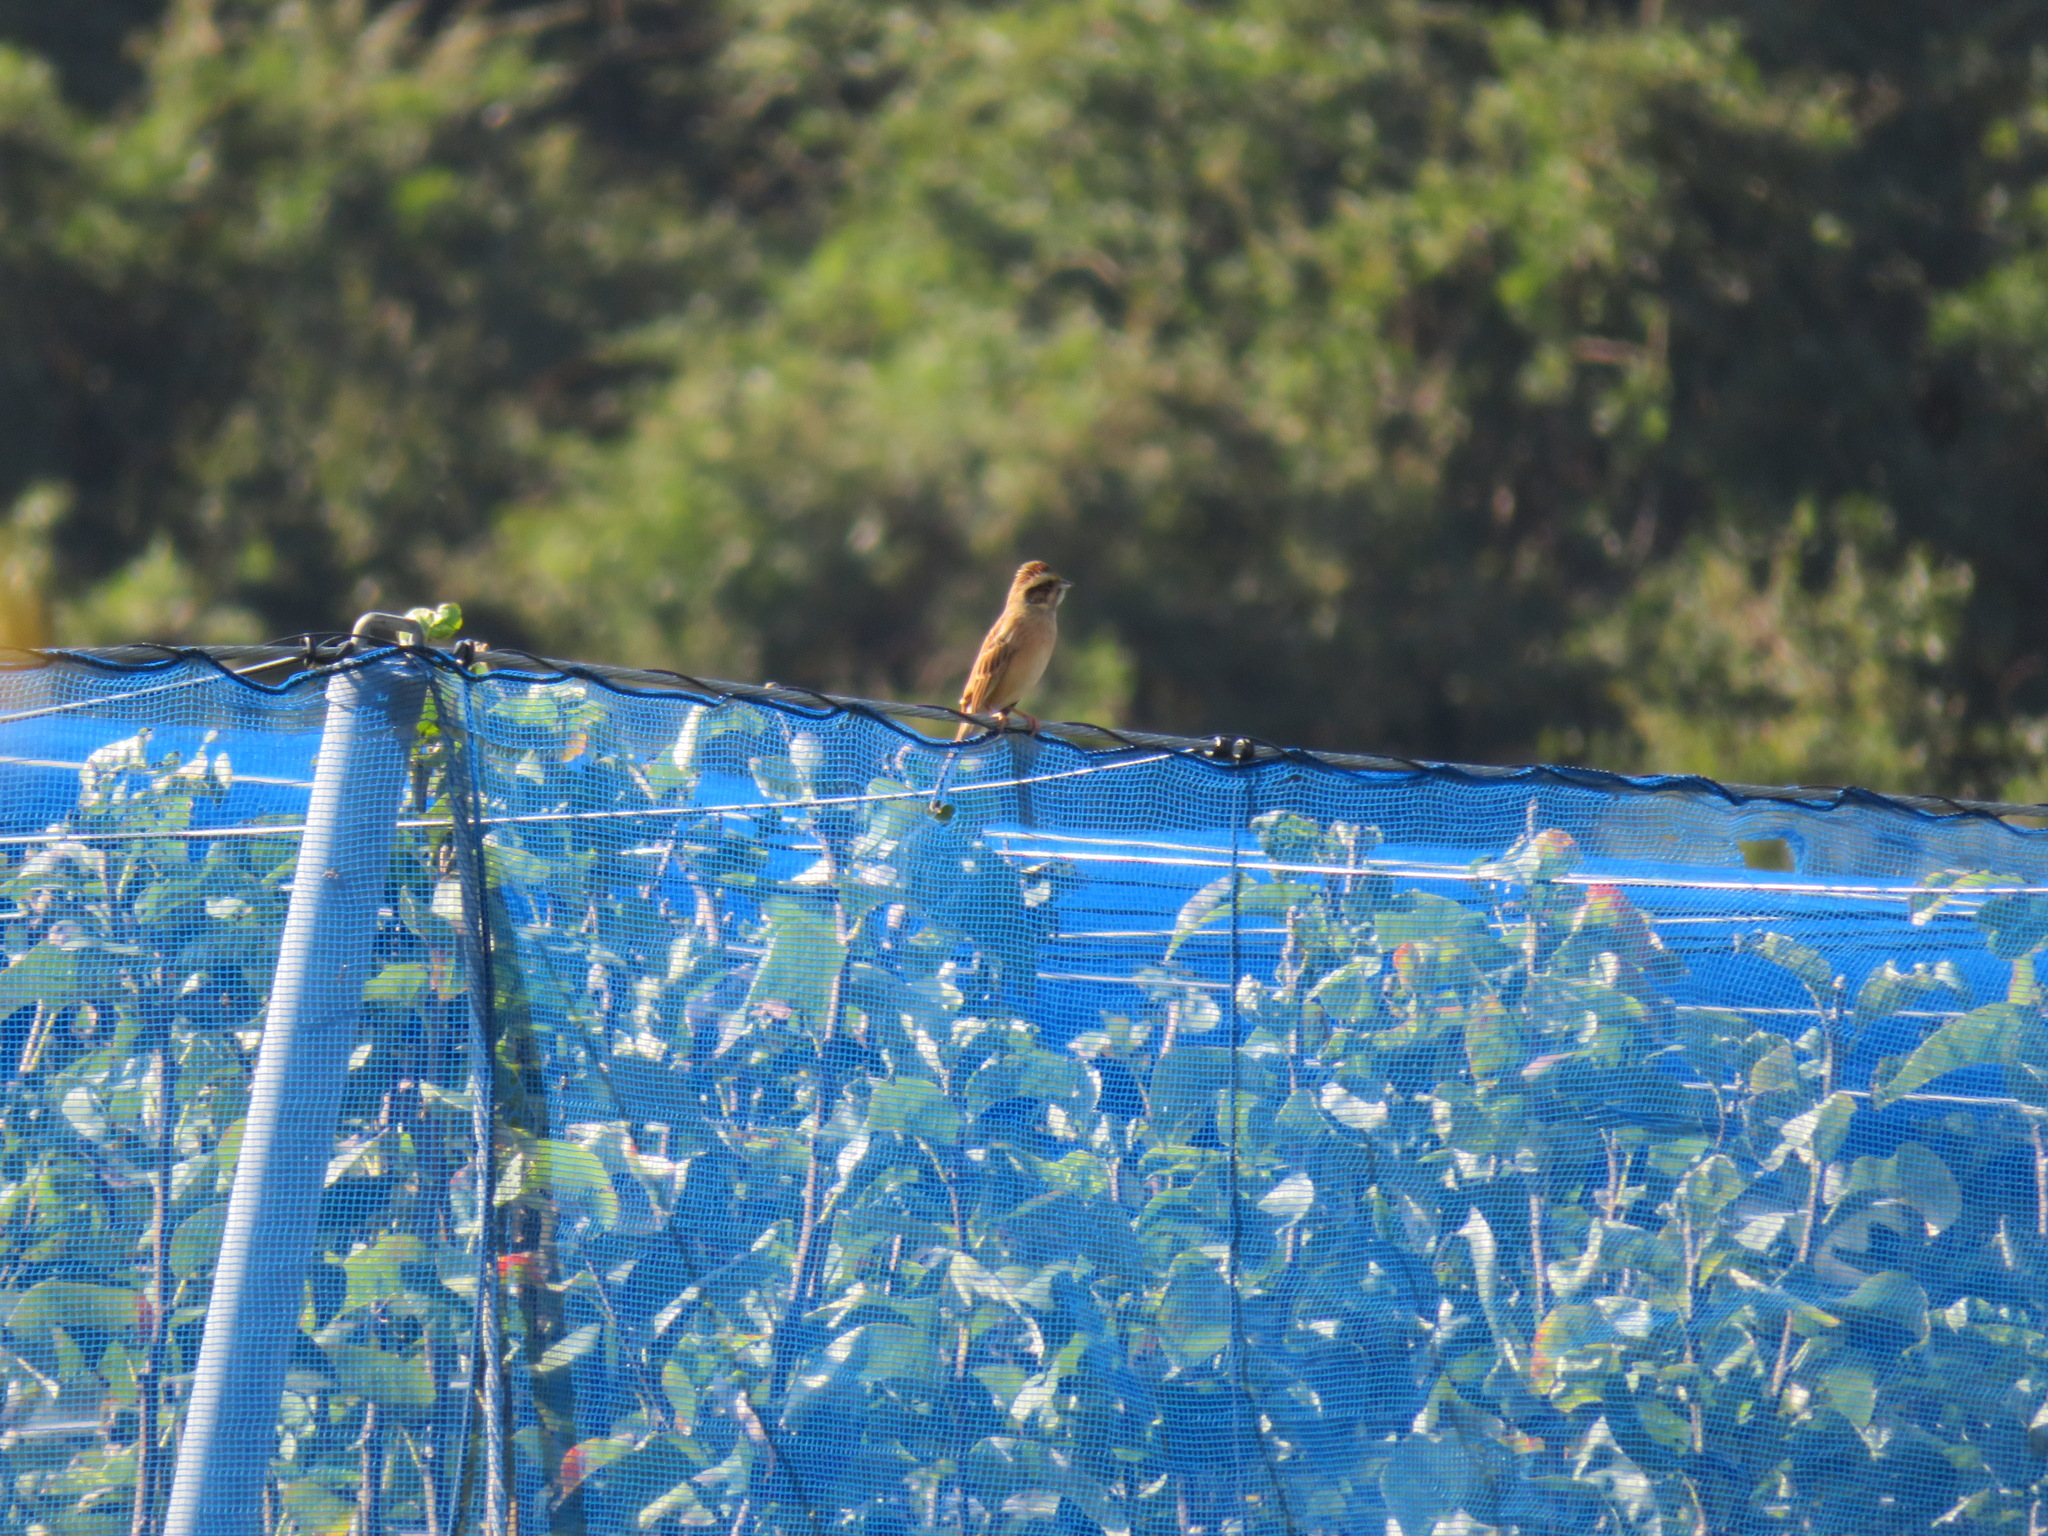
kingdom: Animalia
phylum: Chordata
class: Aves
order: Passeriformes
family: Emberizidae
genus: Emberiza
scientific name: Emberiza cioides
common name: Meadow bunting
